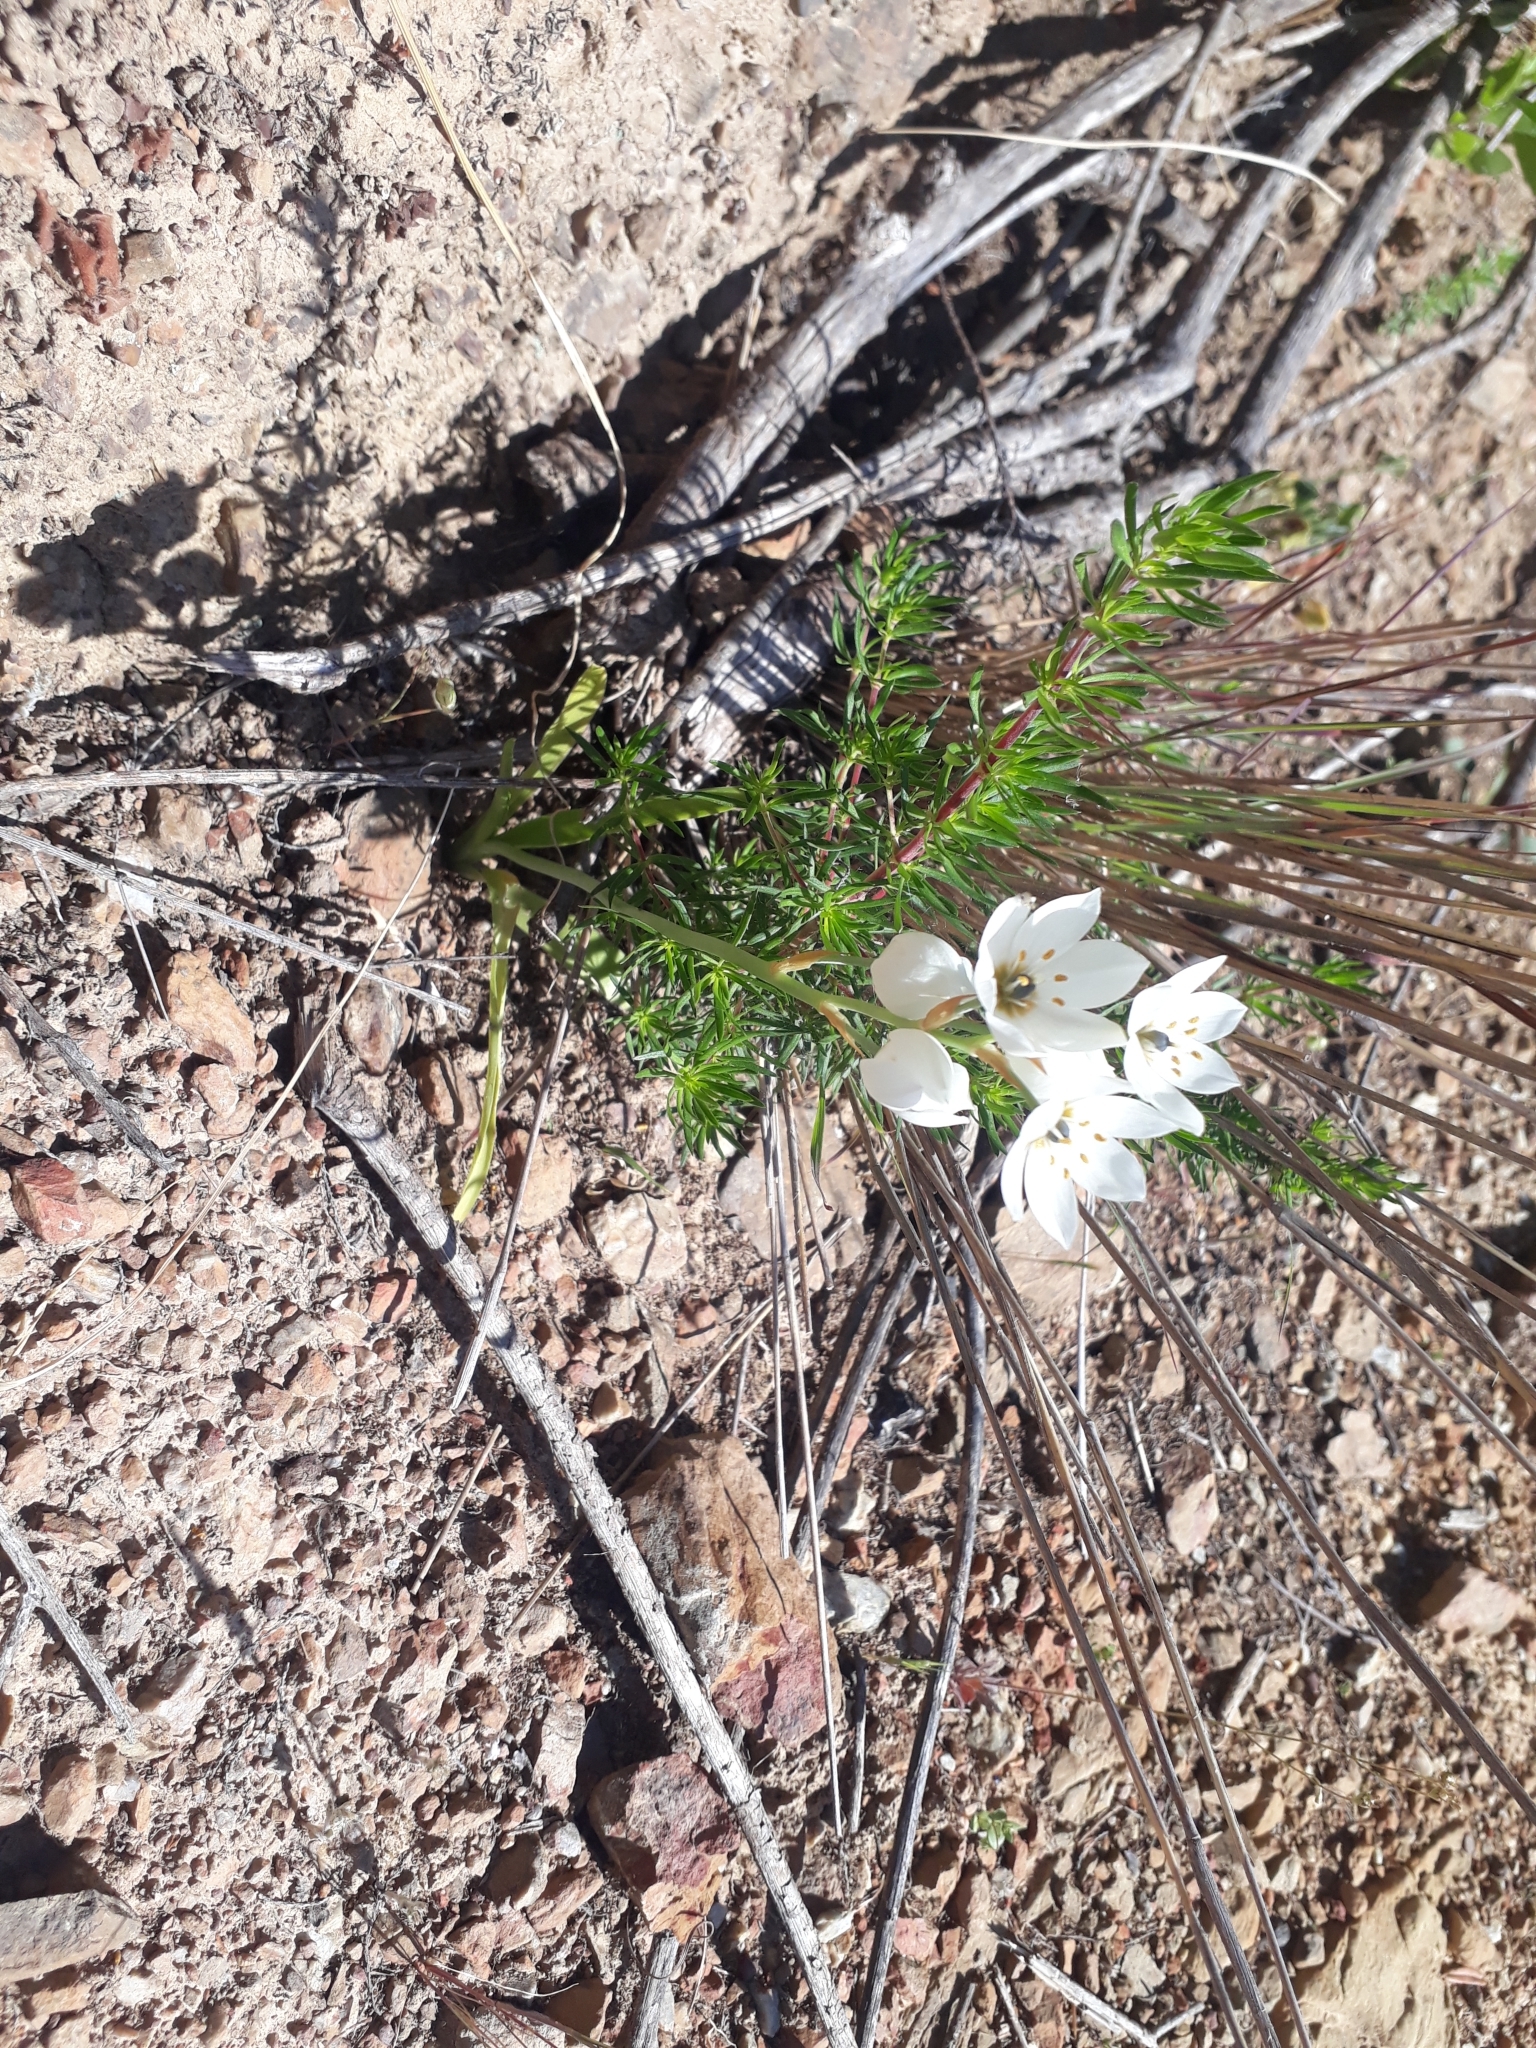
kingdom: Plantae
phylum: Tracheophyta
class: Liliopsida
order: Asparagales
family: Asparagaceae
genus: Ornithogalum
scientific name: Ornithogalum thyrsoides
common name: Chincherinchee
